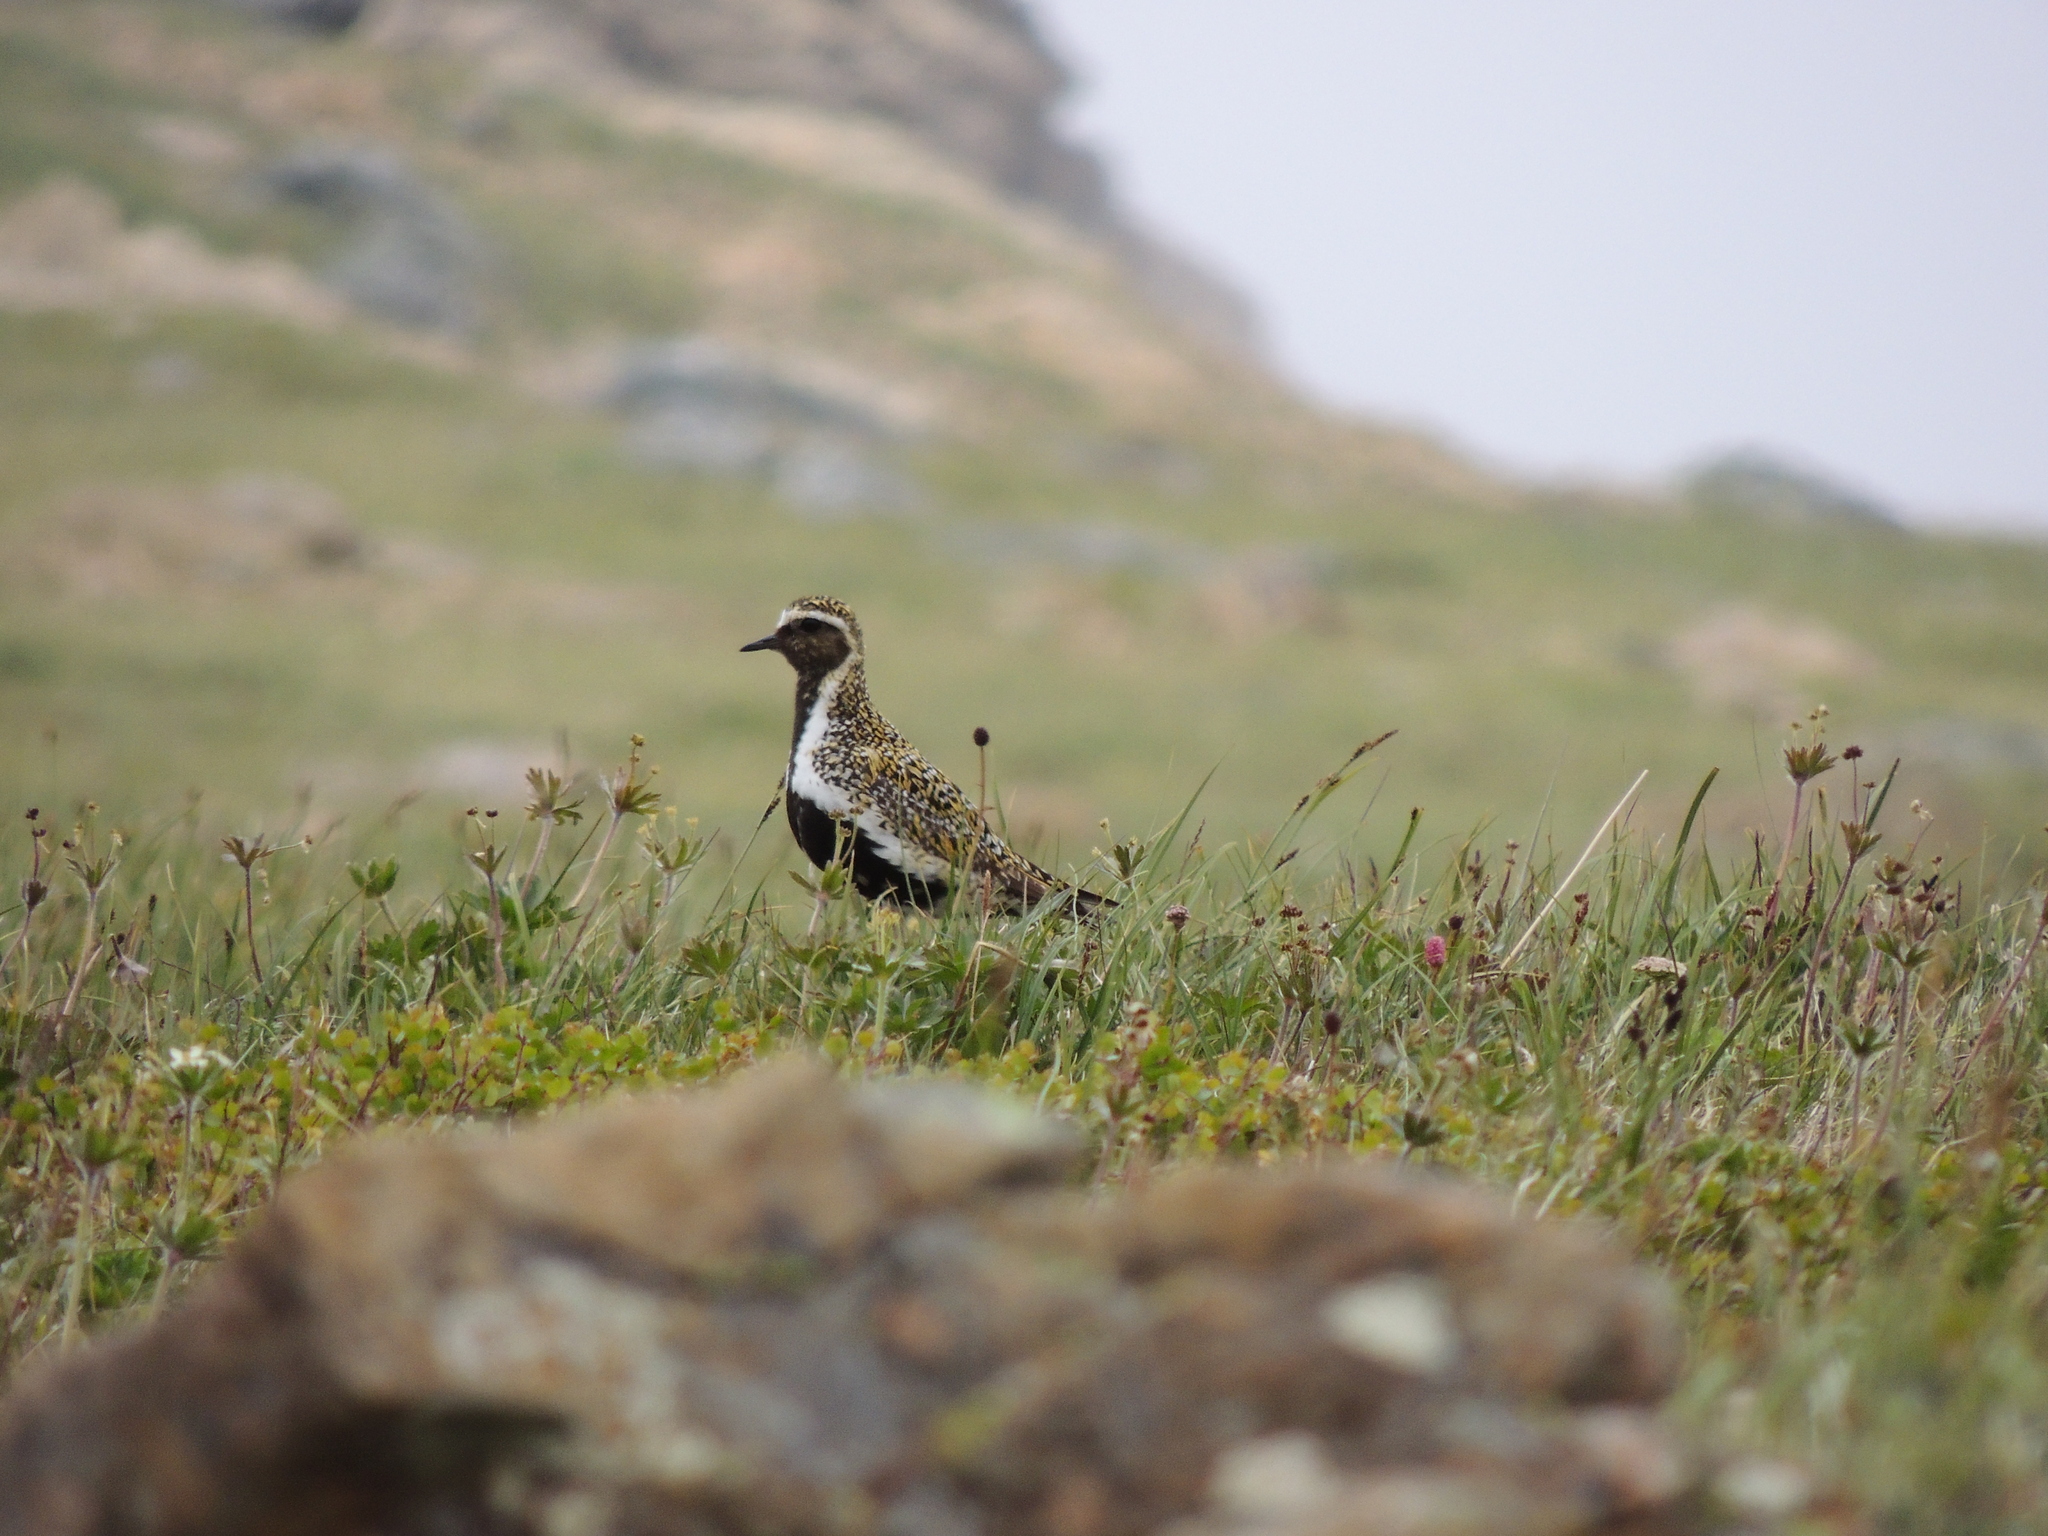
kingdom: Animalia
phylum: Chordata
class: Aves
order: Charadriiformes
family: Charadriidae
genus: Pluvialis
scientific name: Pluvialis apricaria
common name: European golden plover
